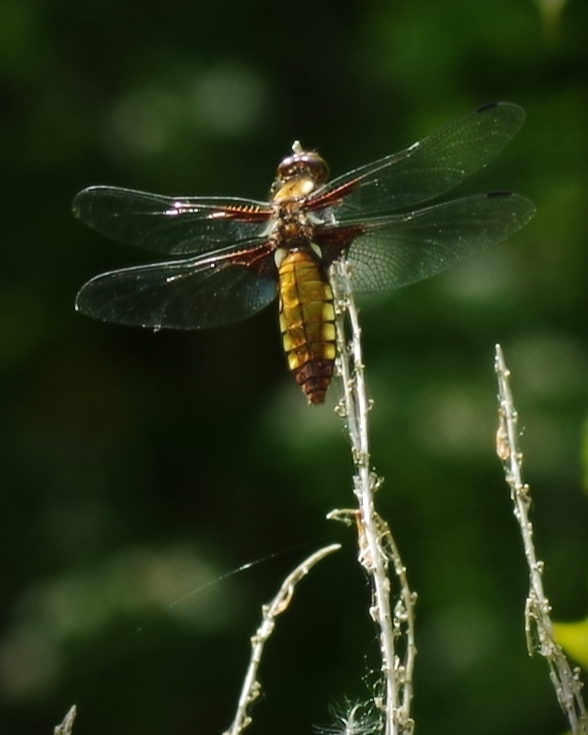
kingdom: Animalia
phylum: Arthropoda
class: Insecta
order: Odonata
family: Libellulidae
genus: Libellula
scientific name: Libellula depressa
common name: Broad-bodied chaser
